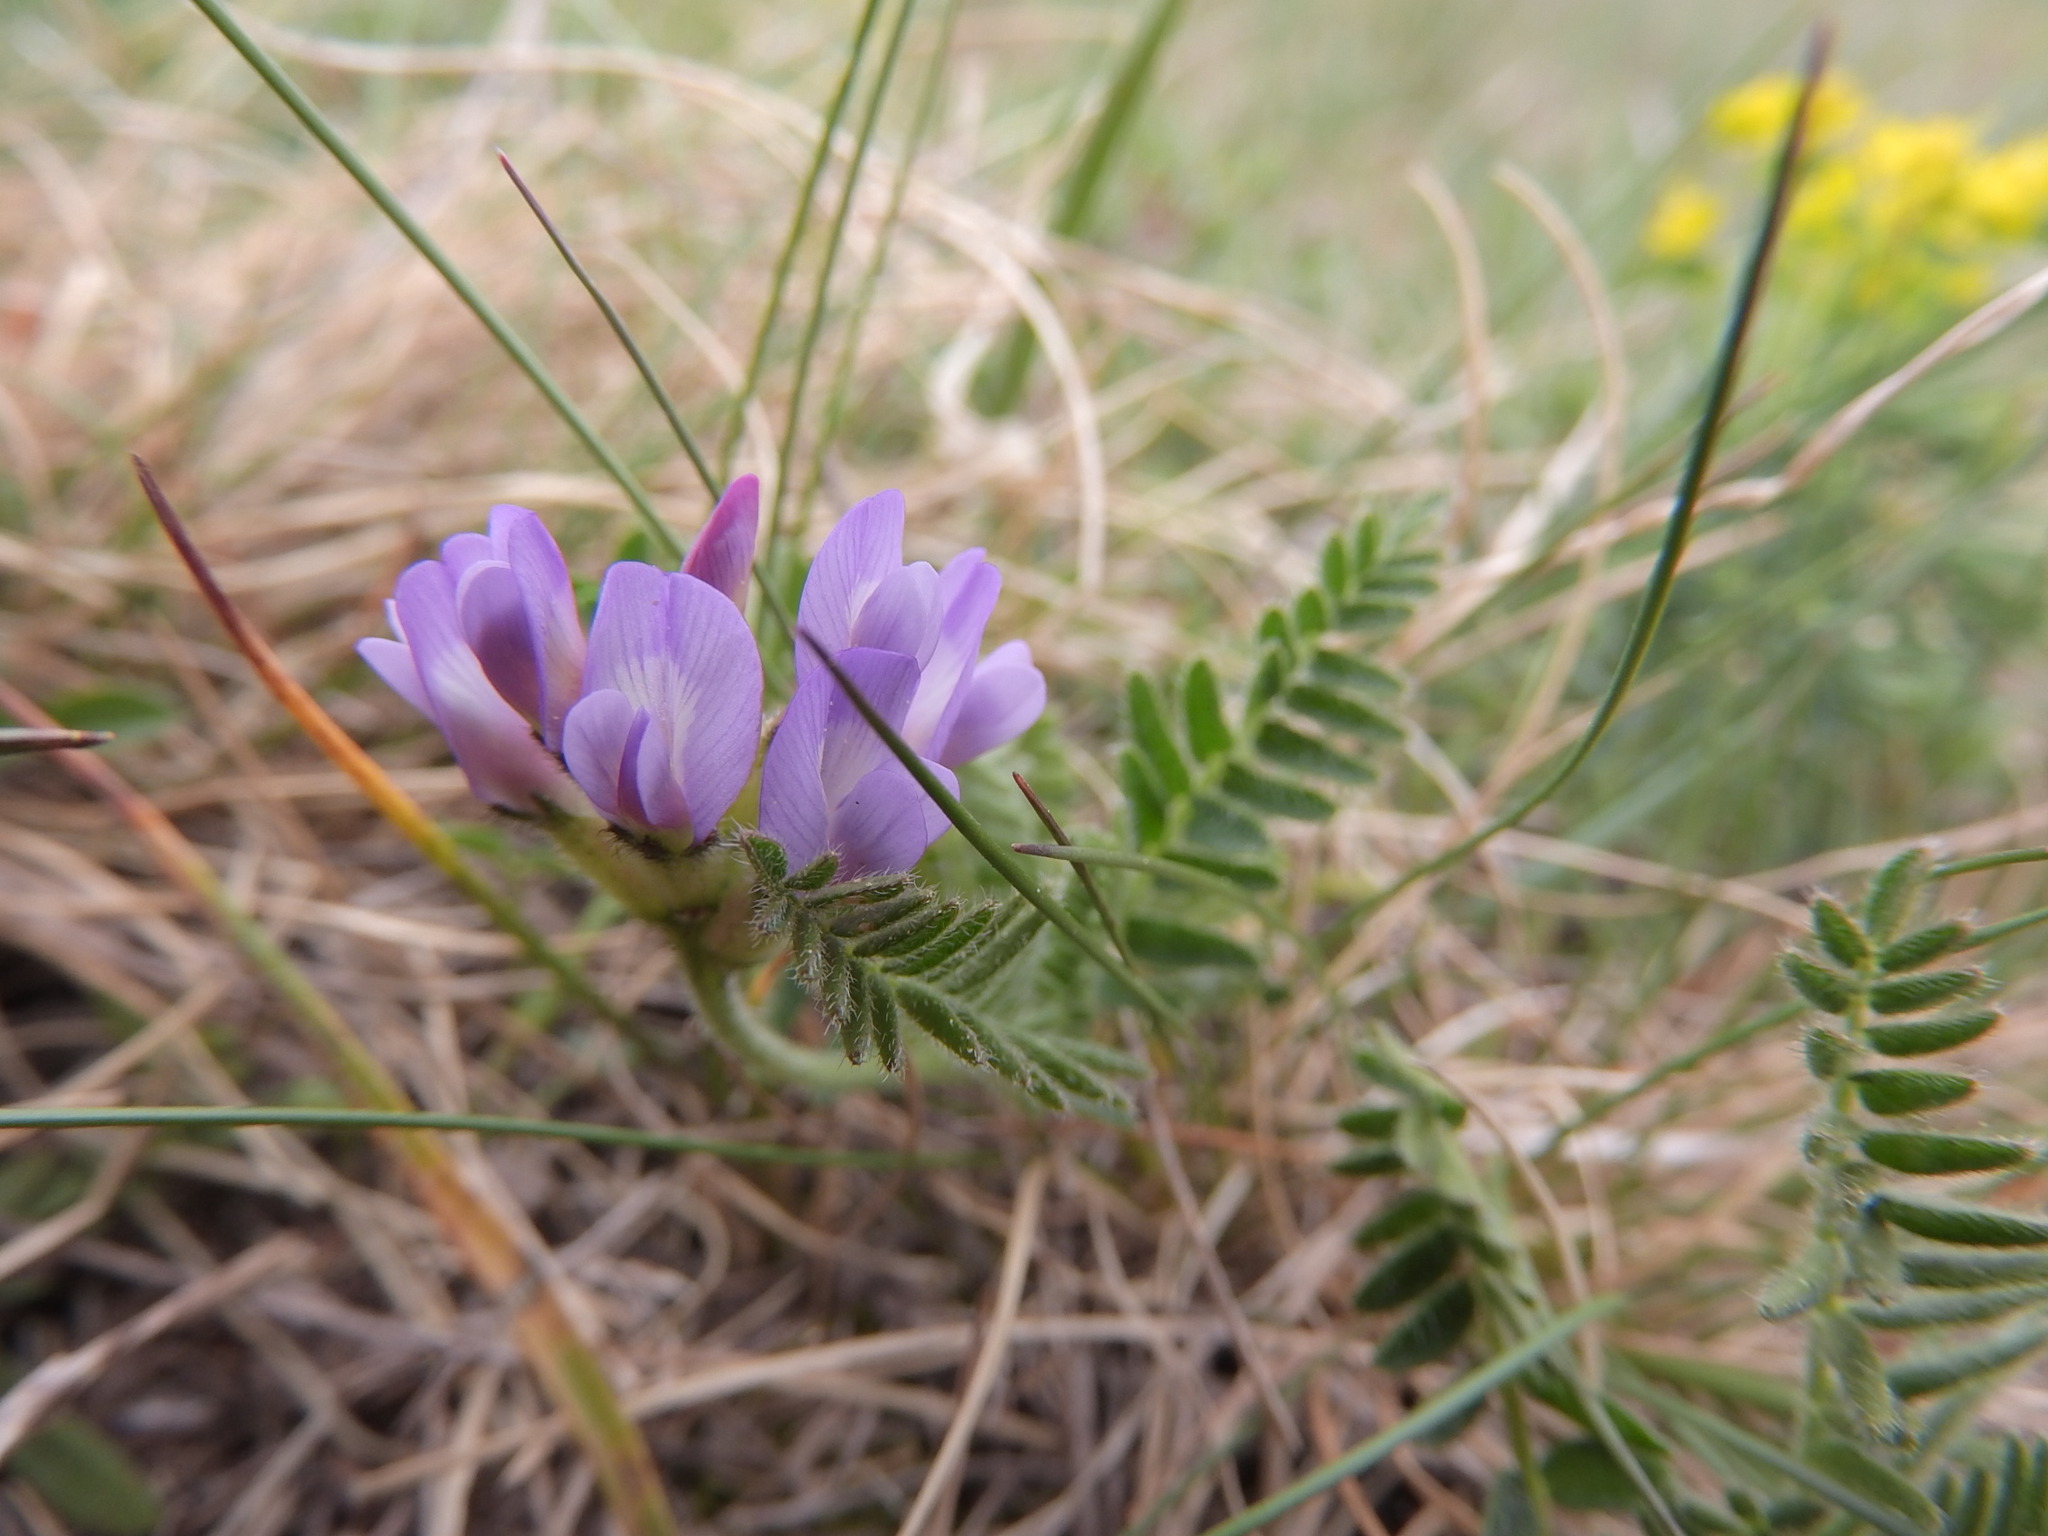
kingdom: Plantae
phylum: Tracheophyta
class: Magnoliopsida
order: Fabales
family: Fabaceae
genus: Astragalus
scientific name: Astragalus danicus
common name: Purple milk-vetch
